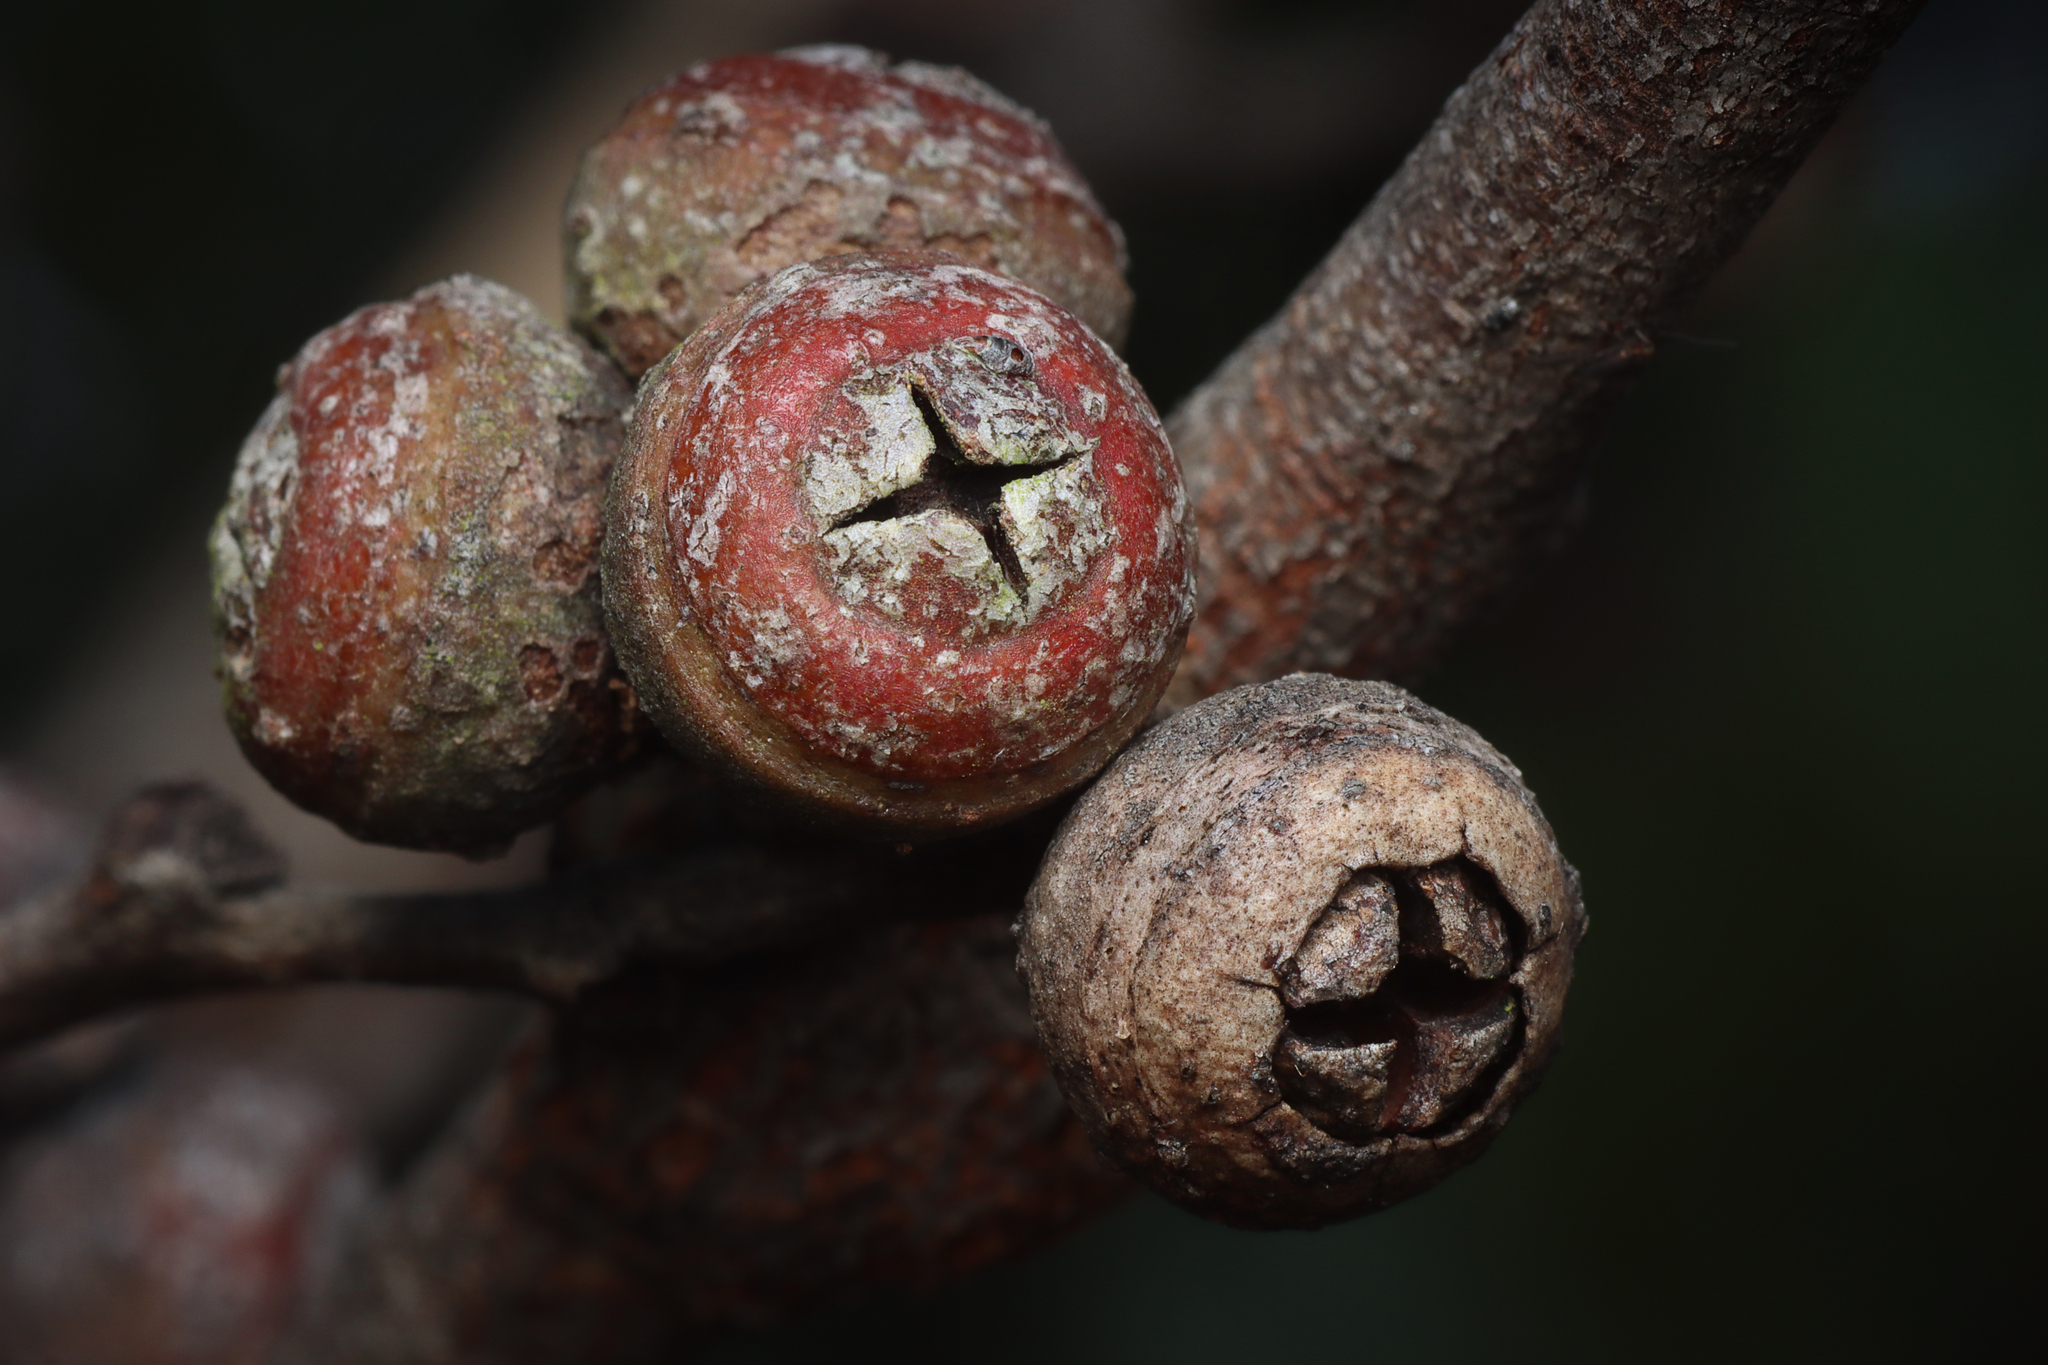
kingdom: Plantae
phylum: Tracheophyta
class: Magnoliopsida
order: Myrtales
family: Myrtaceae
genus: Eucalyptus
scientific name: Eucalyptus baxteri
